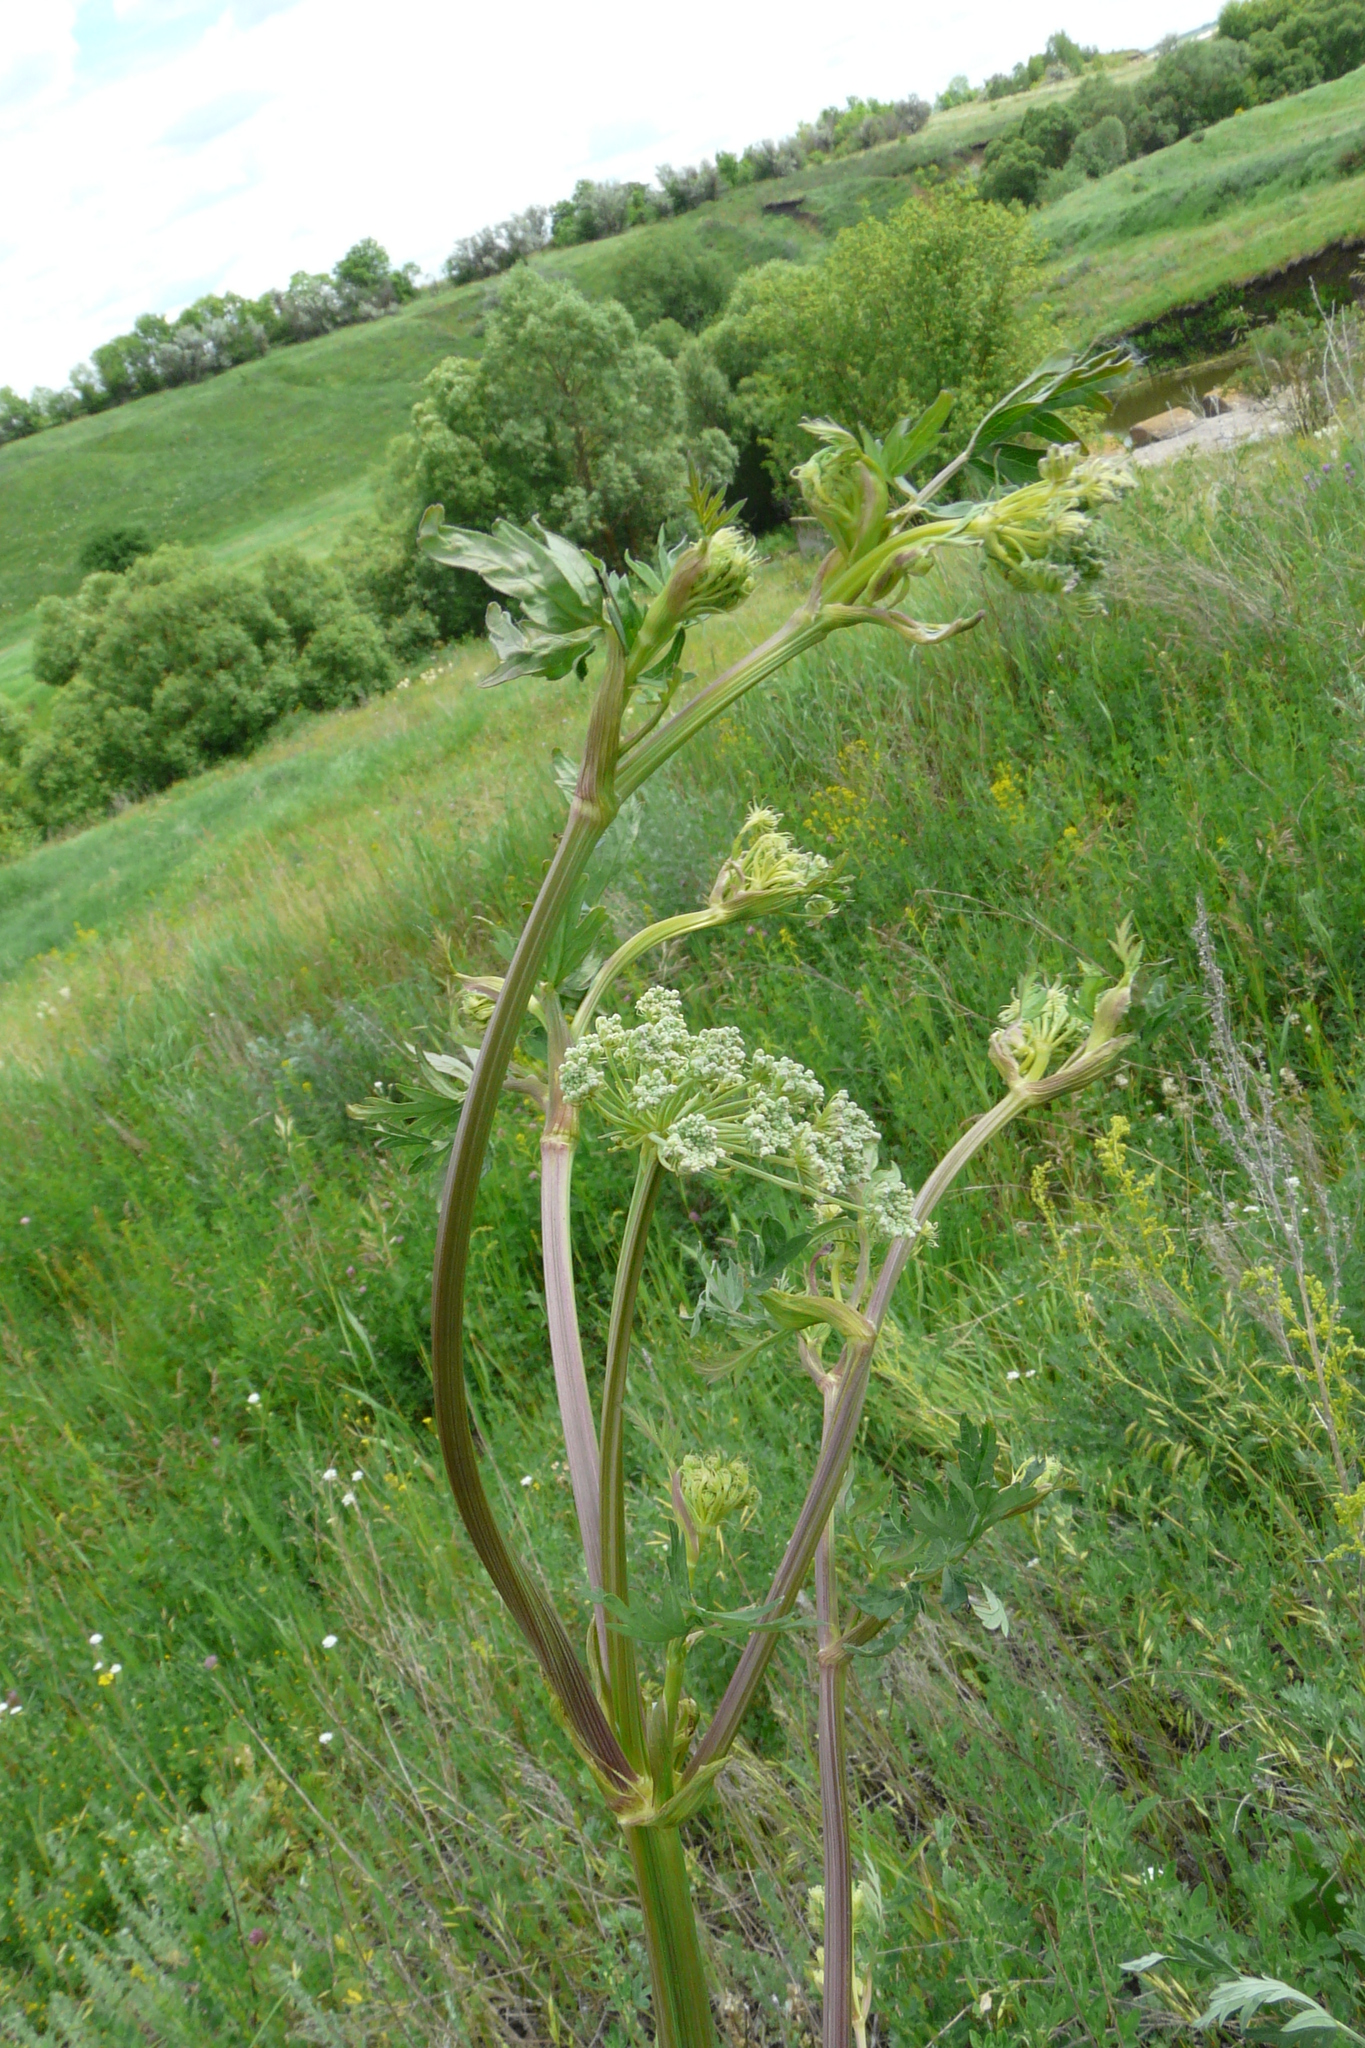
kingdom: Plantae
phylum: Tracheophyta
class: Magnoliopsida
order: Apiales
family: Apiaceae
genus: Seseli
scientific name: Seseli libanotis
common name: Mooncarrot
